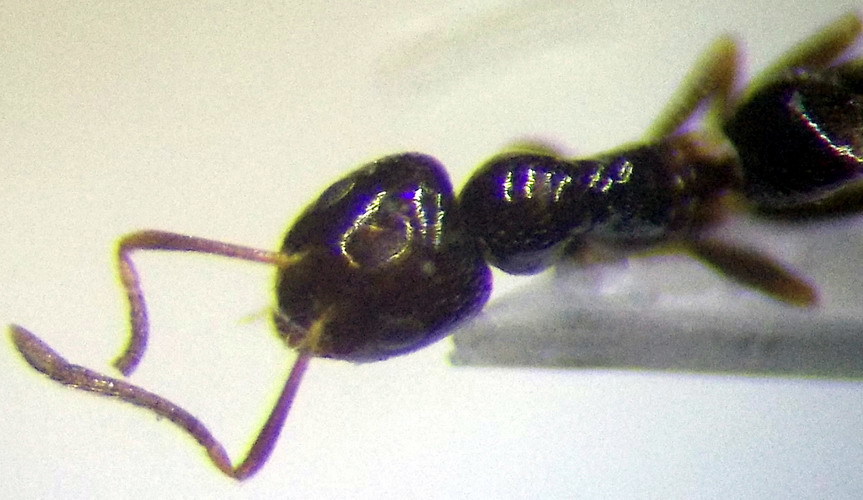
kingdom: Animalia
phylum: Arthropoda
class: Insecta
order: Hymenoptera
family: Formicidae
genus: Plagiolepis
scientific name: Plagiolepis pallescens
